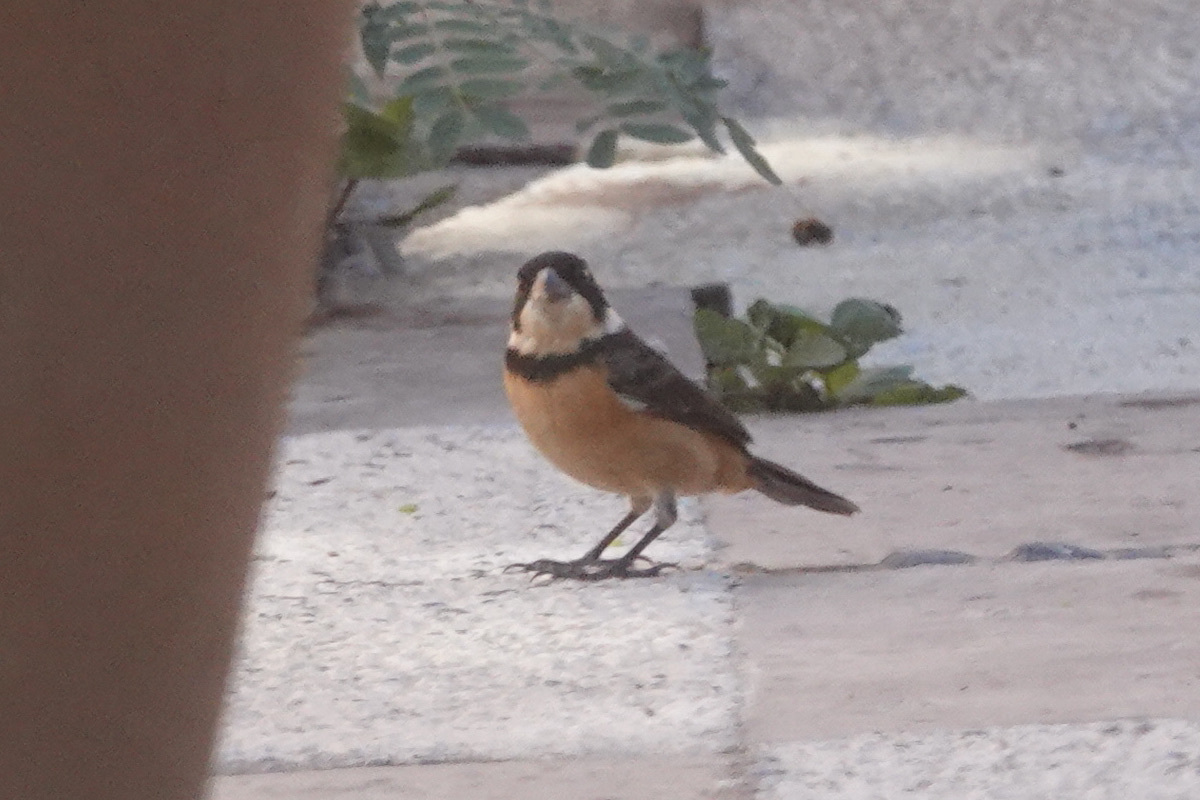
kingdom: Animalia
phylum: Chordata
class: Aves
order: Passeriformes
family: Thraupidae
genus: Sporophila
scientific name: Sporophila torqueola
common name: White-collared seedeater
